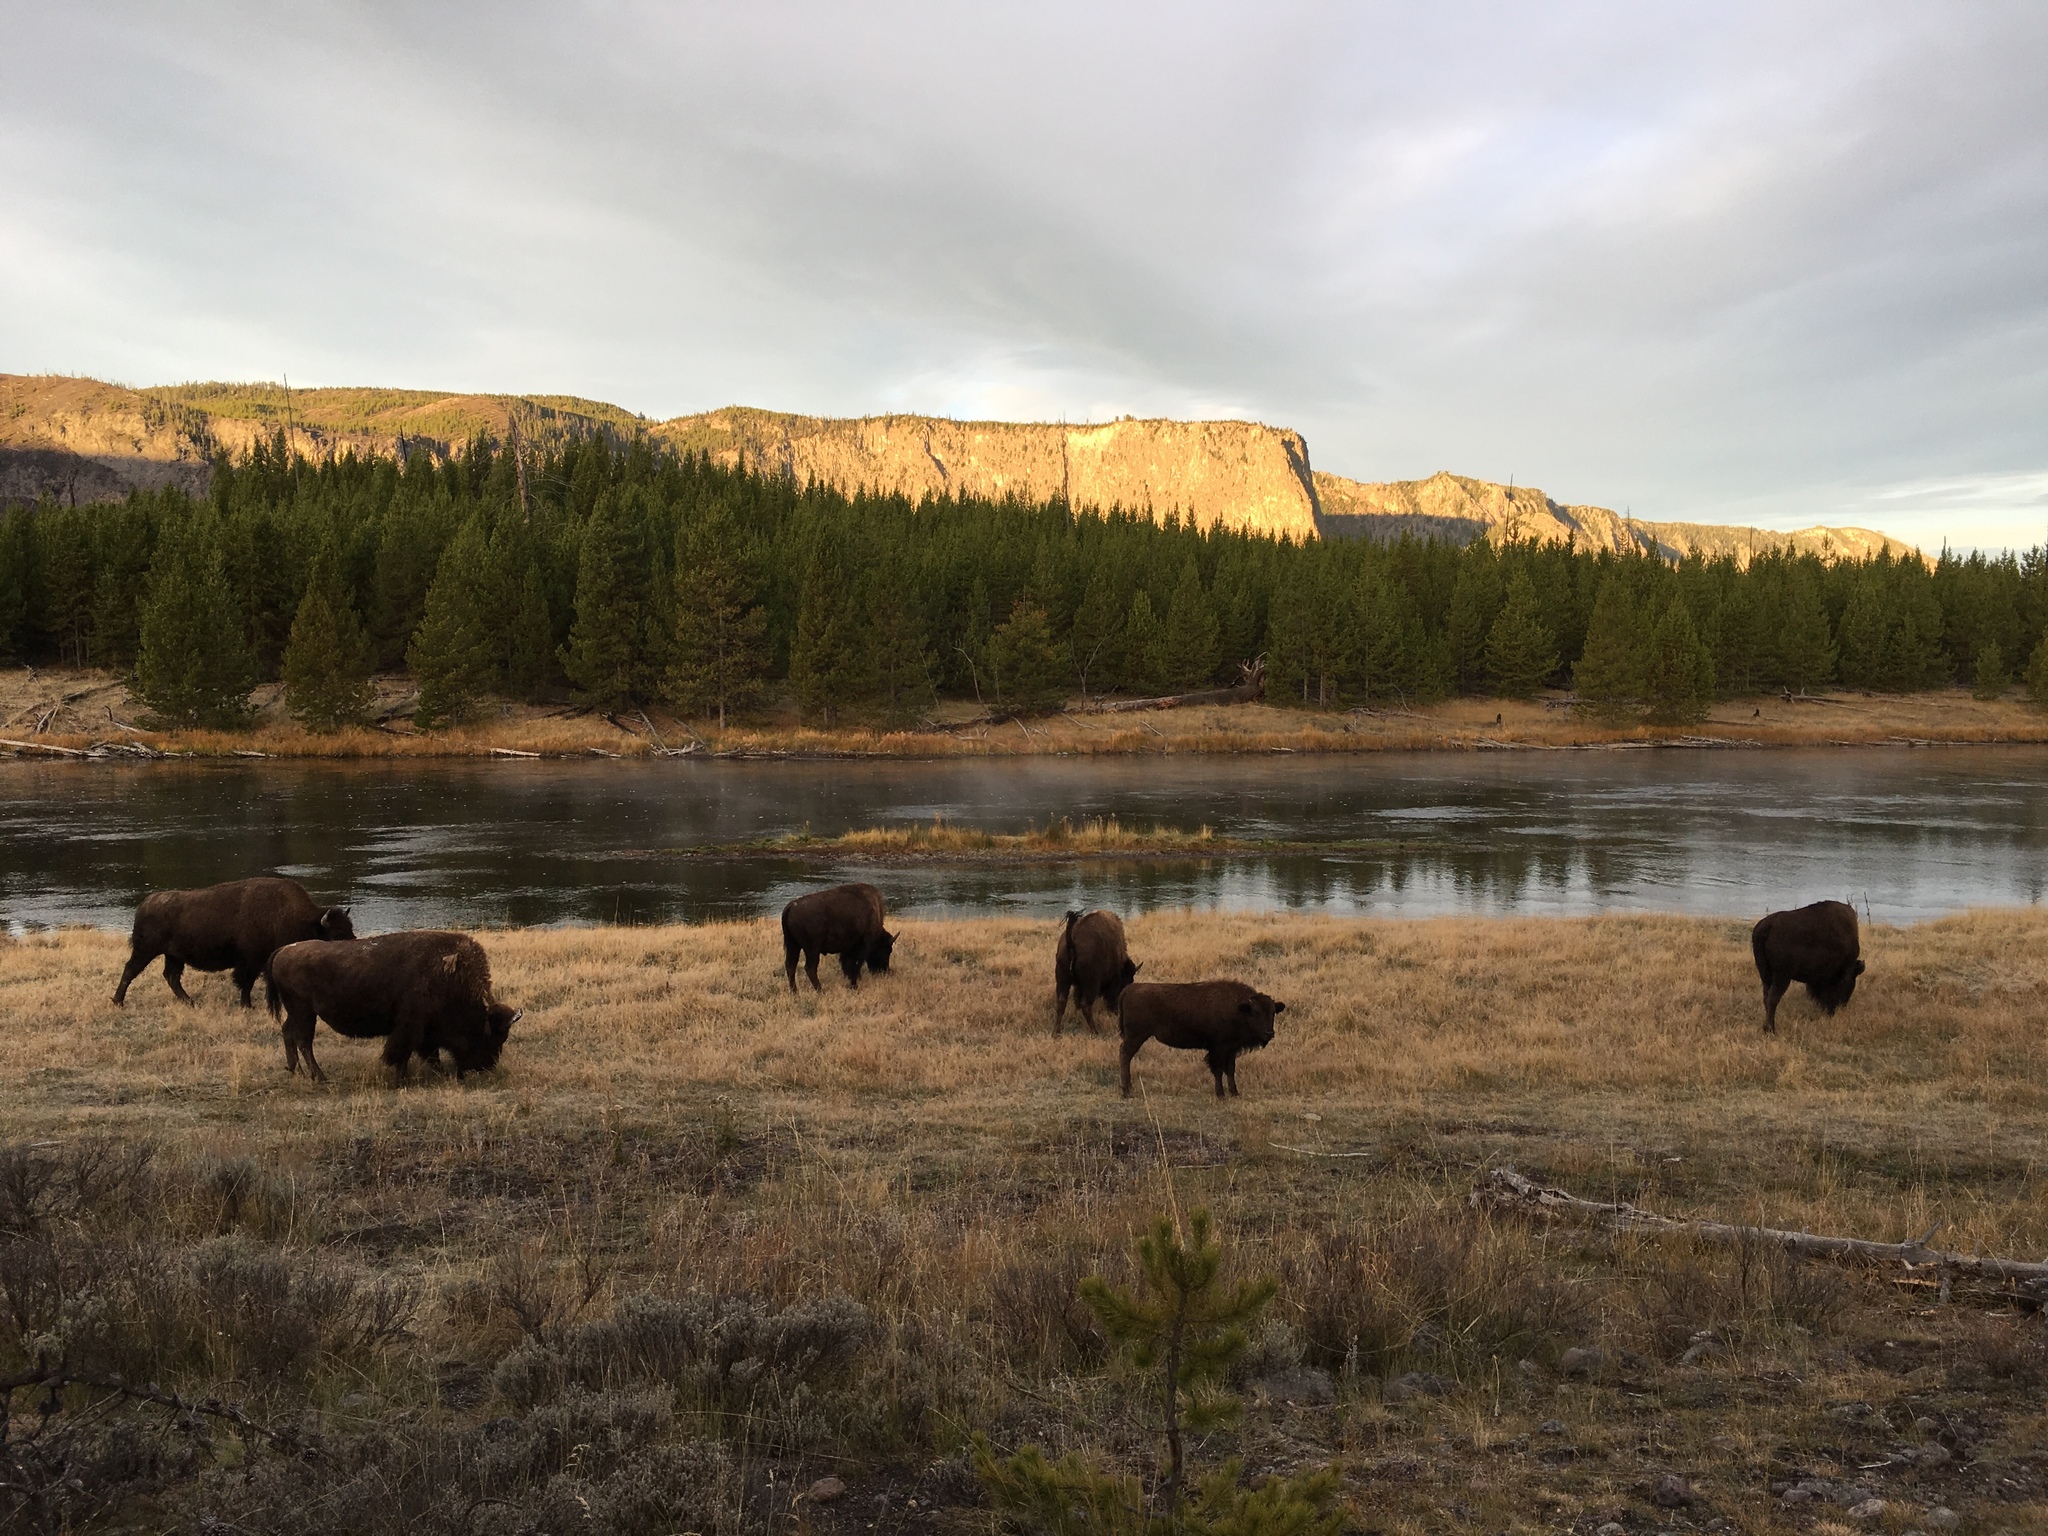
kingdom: Animalia
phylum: Chordata
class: Mammalia
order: Artiodactyla
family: Bovidae
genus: Bison
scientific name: Bison bison
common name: American bison
